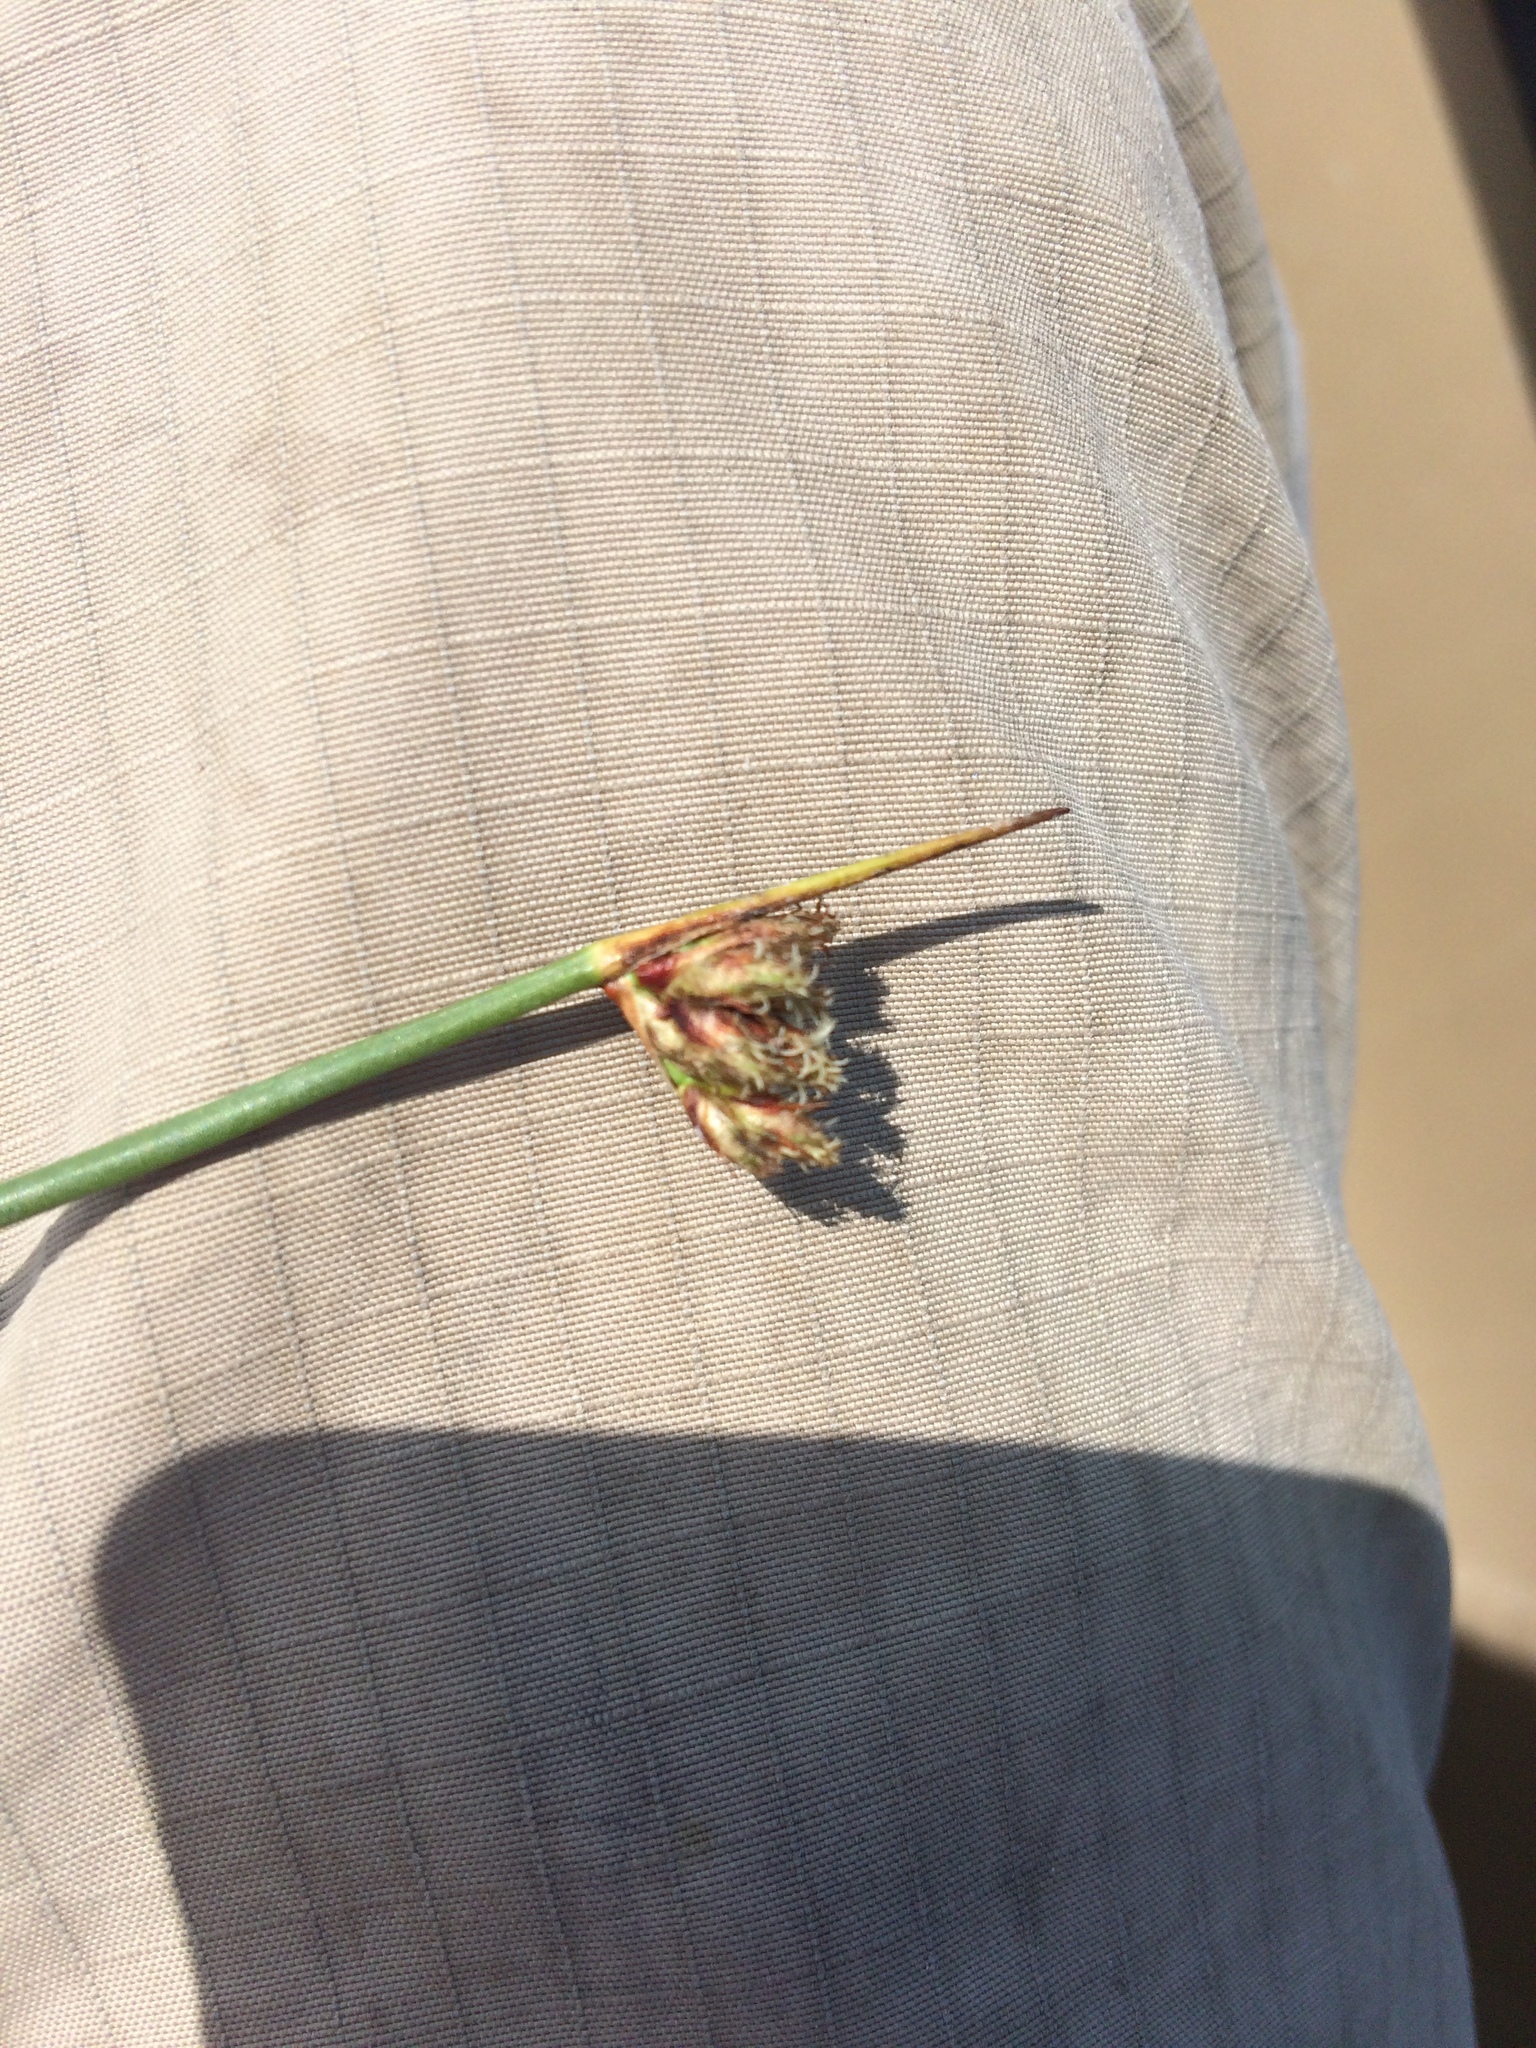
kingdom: Plantae
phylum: Tracheophyta
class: Liliopsida
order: Poales
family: Cyperaceae
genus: Schoenoplectus
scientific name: Schoenoplectus
